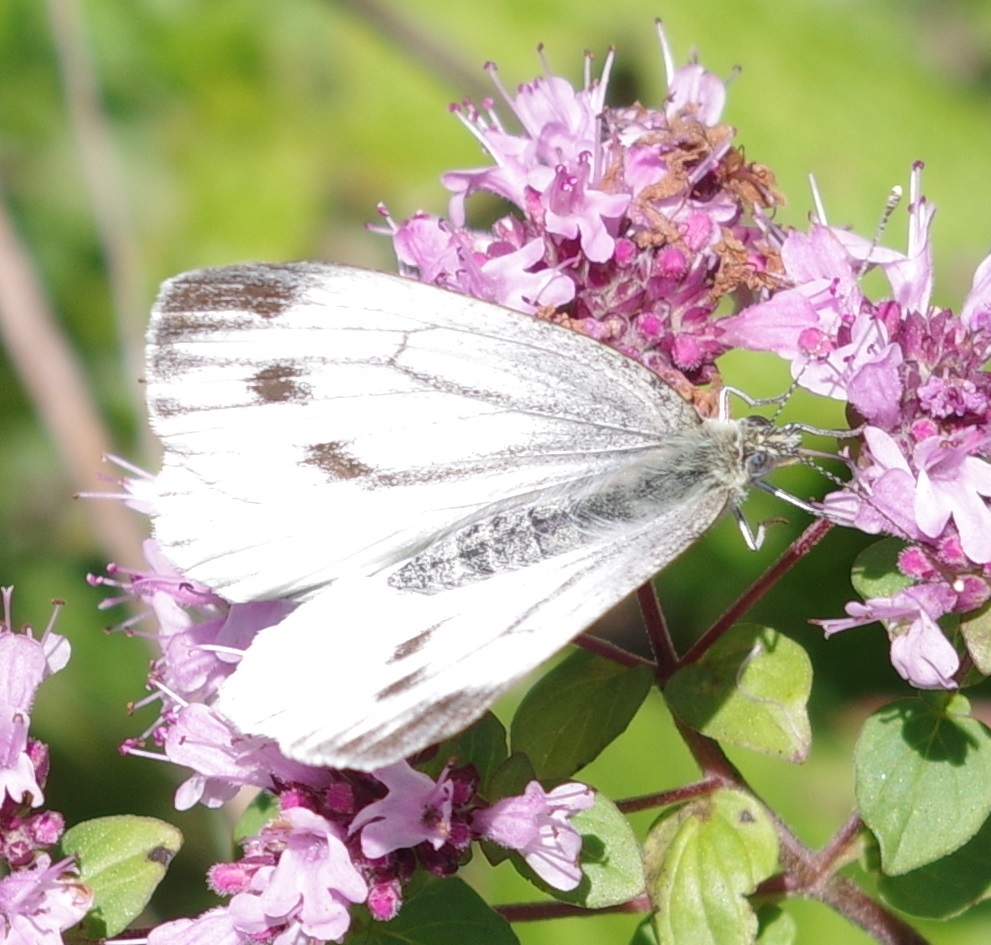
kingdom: Animalia
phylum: Arthropoda
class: Insecta
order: Lepidoptera
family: Pieridae
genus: Pieris
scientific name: Pieris napi
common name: Green-veined white
